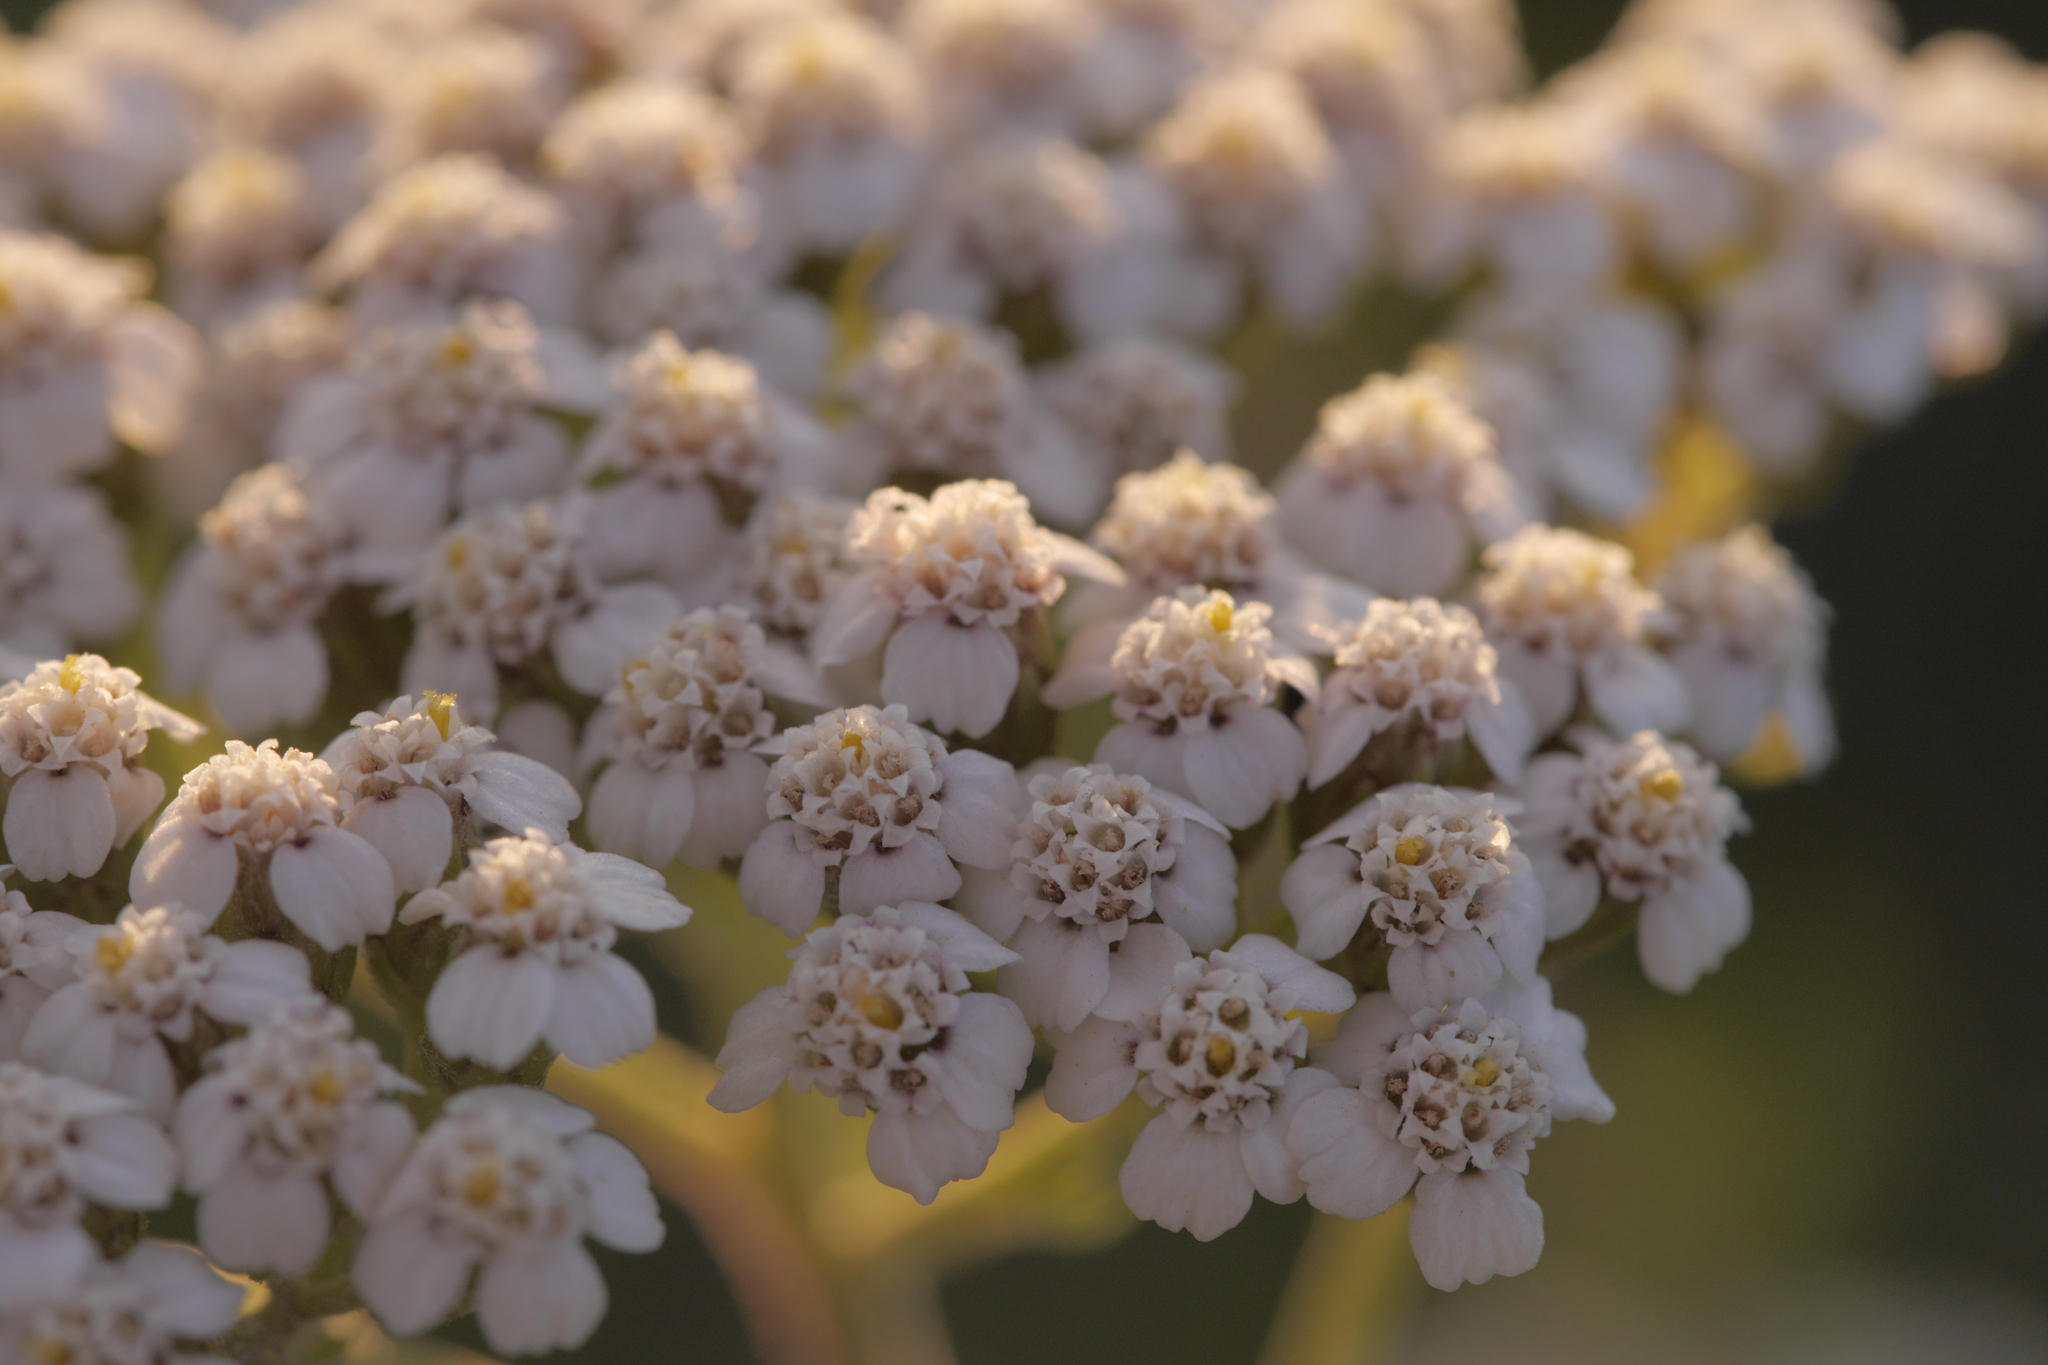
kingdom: Plantae
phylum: Tracheophyta
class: Magnoliopsida
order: Asterales
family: Asteraceae
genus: Achillea
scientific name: Achillea millefolium
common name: Yarrow
